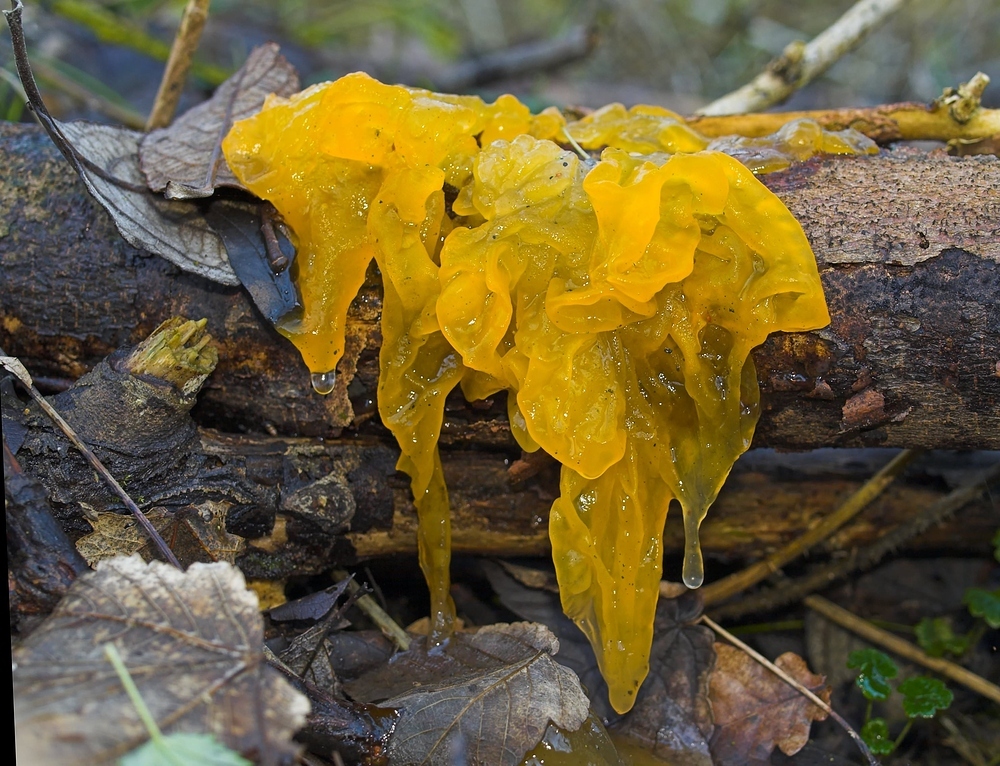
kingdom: Fungi
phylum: Basidiomycota
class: Tremellomycetes
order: Tremellales
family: Tremellaceae
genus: Tremella
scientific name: Tremella mesenterica
